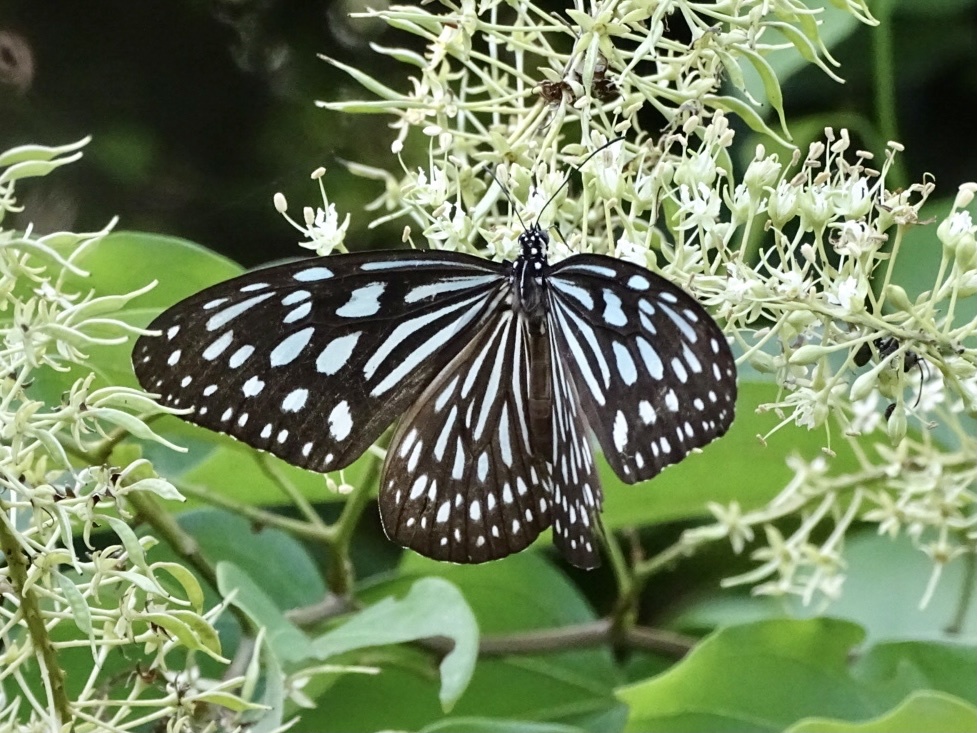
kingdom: Animalia
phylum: Arthropoda
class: Insecta
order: Lepidoptera
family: Nymphalidae
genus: Ideopsis
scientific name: Ideopsis similis
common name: Ceylon blue glassy tiger
